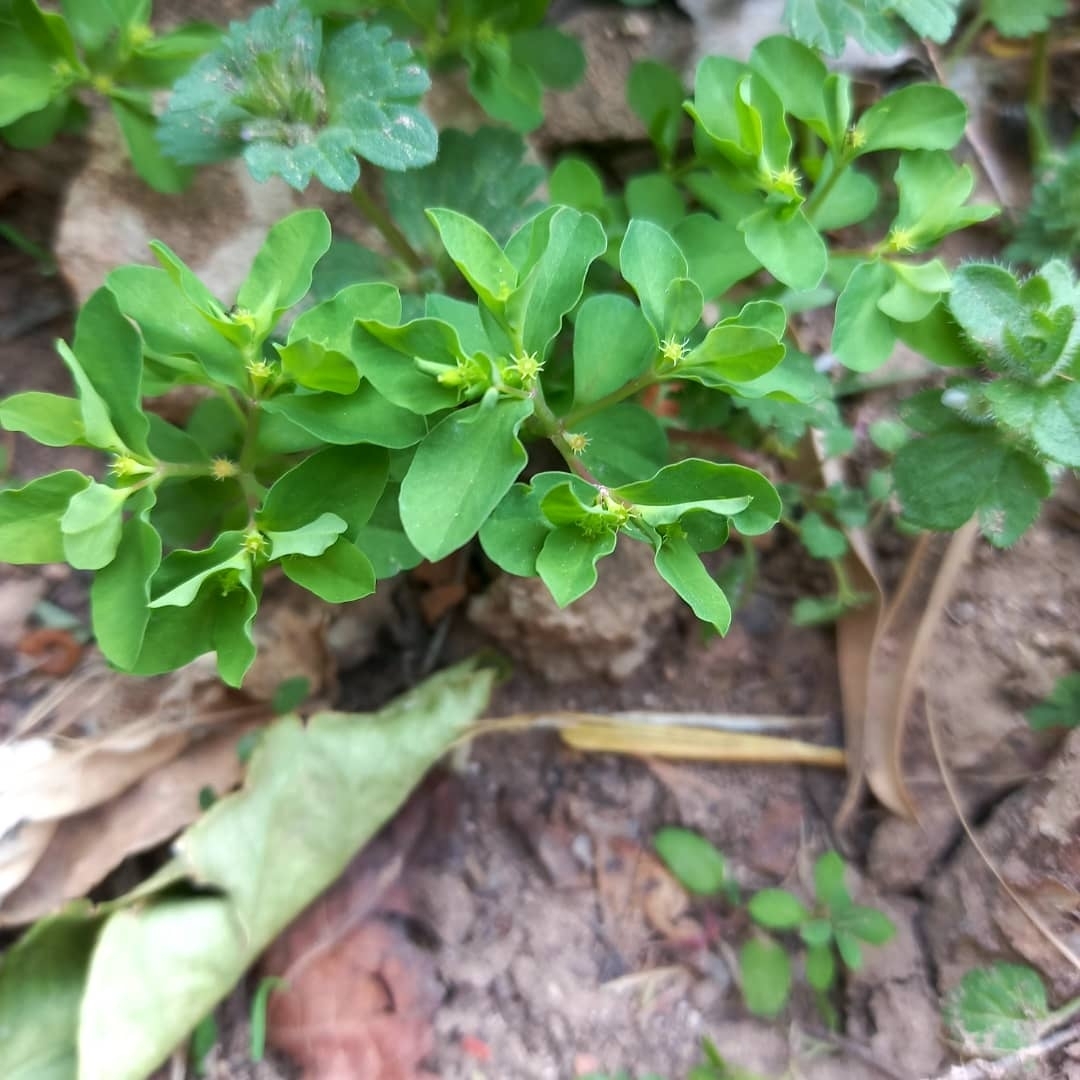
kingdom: Plantae
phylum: Tracheophyta
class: Magnoliopsida
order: Malpighiales
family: Euphorbiaceae
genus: Euphorbia
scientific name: Euphorbia peplus
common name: Petty spurge
